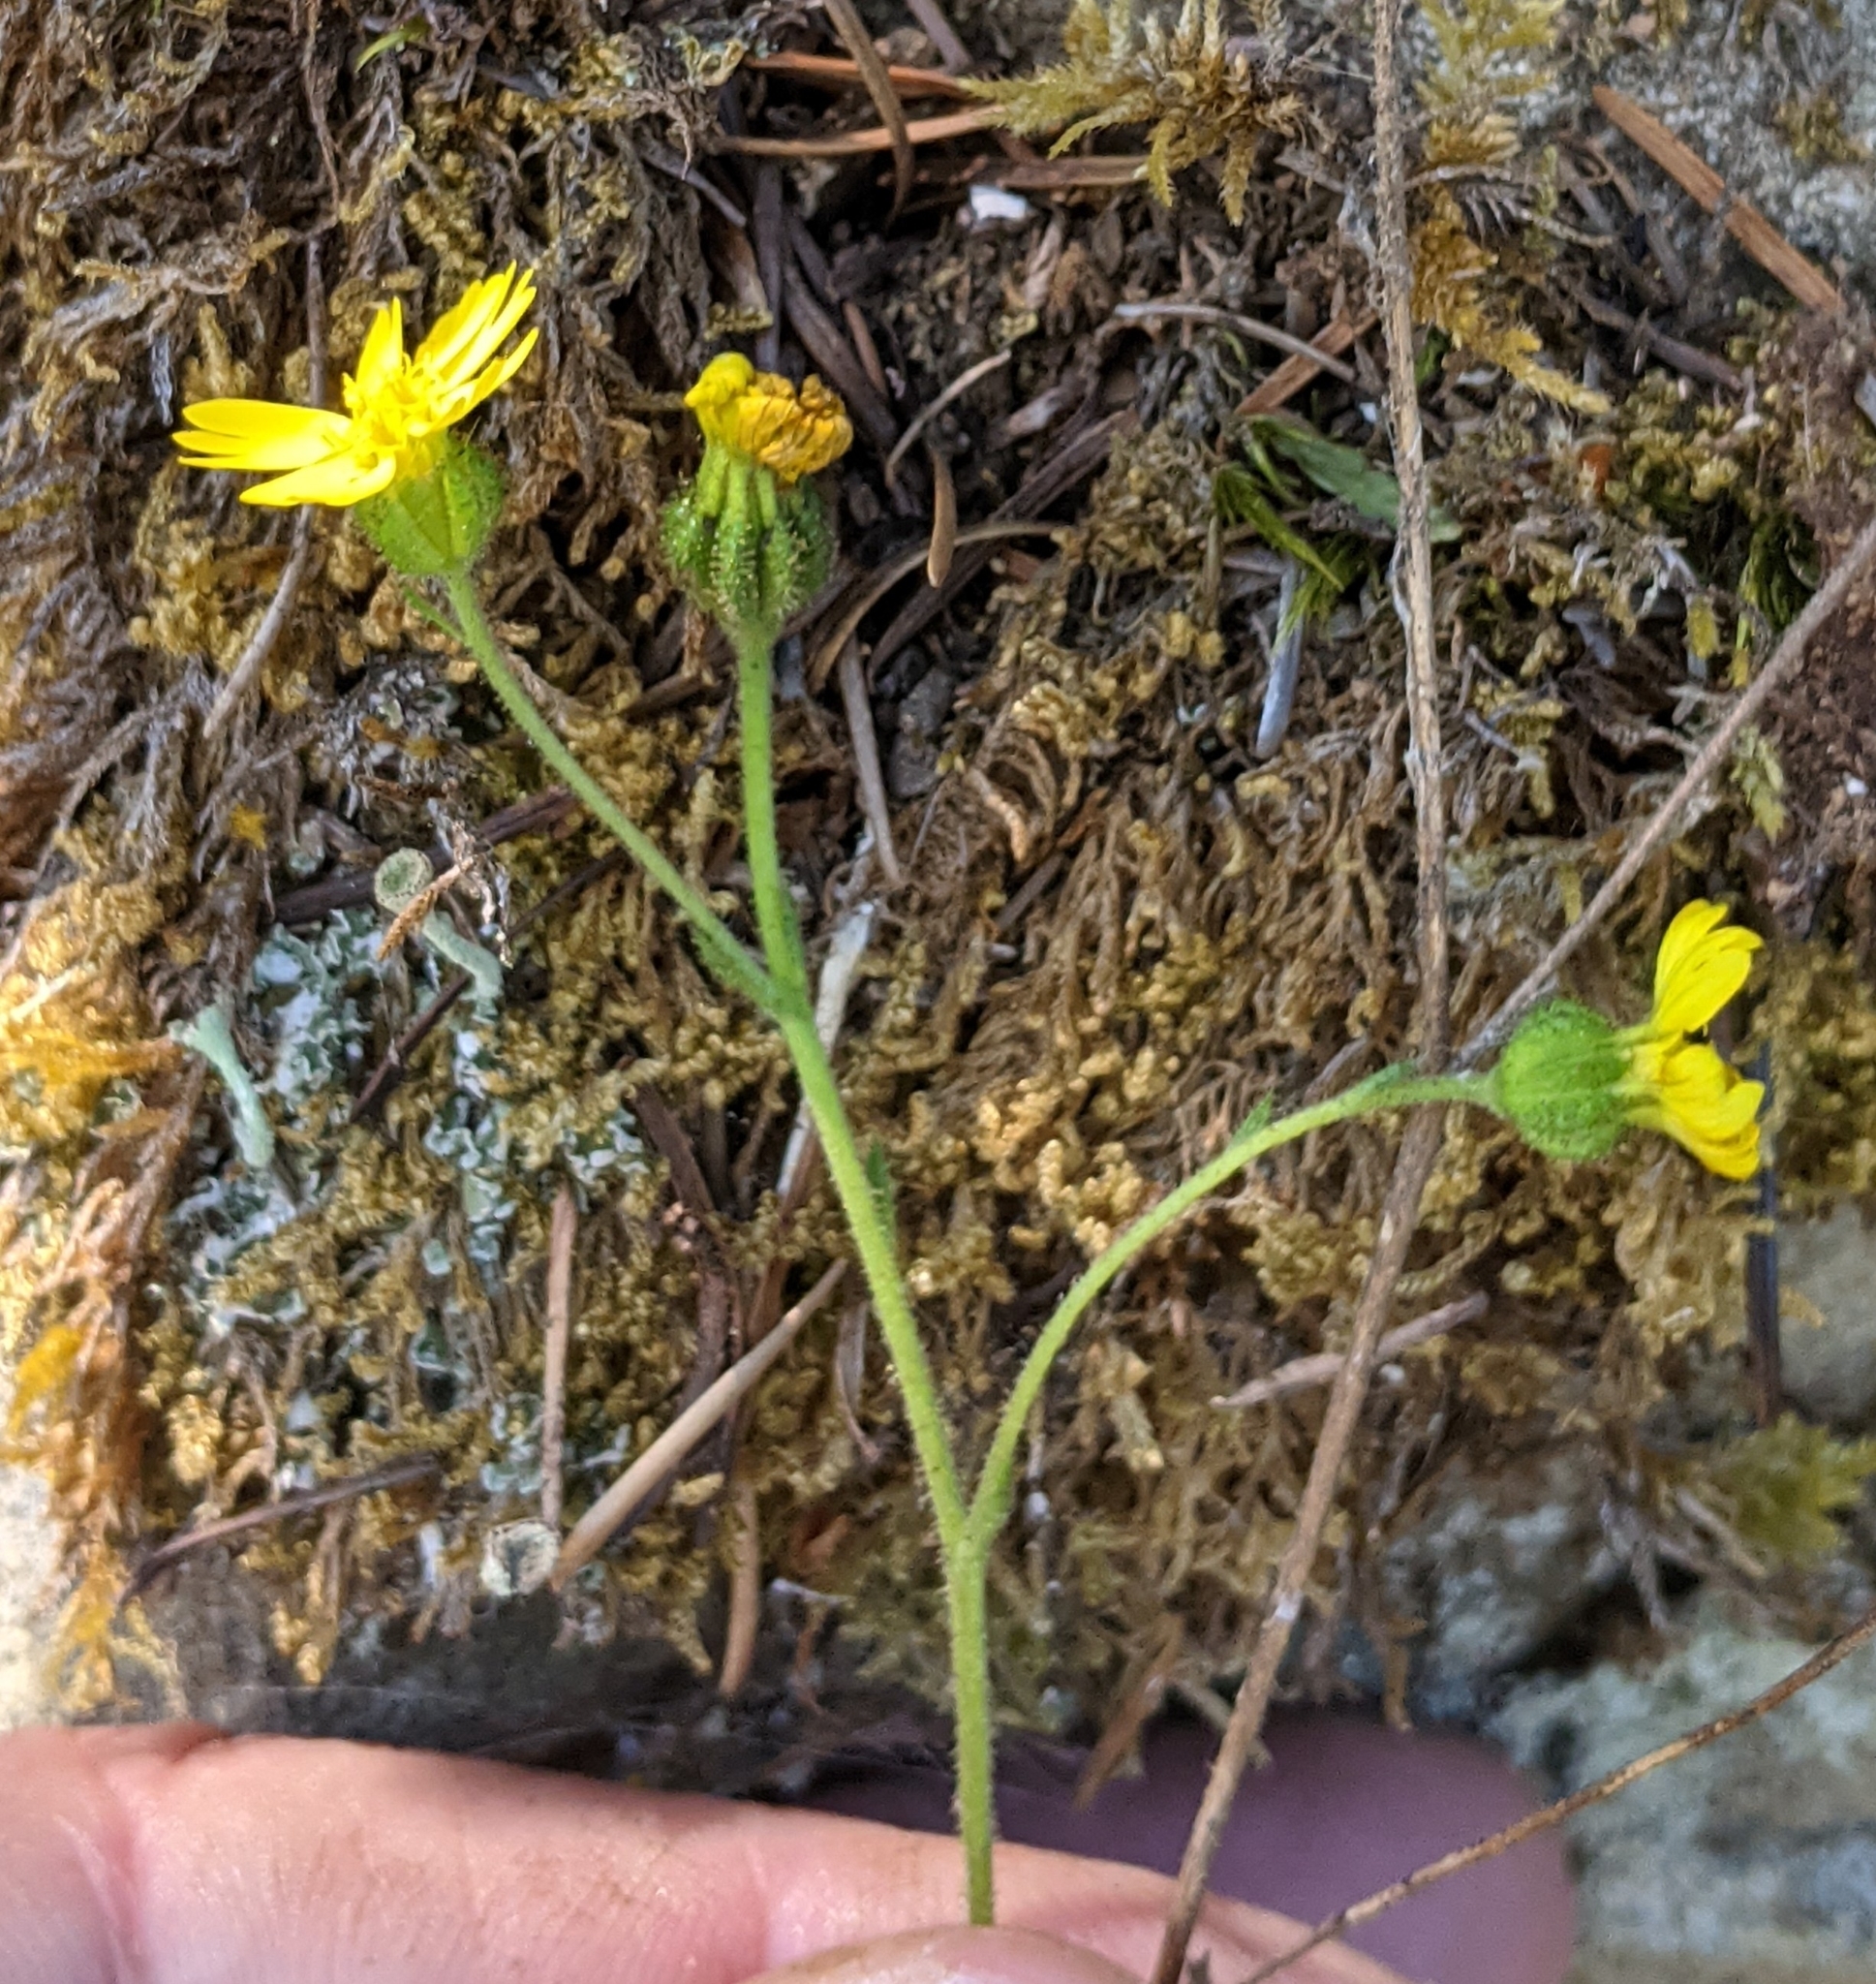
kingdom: Plantae
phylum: Tracheophyta
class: Magnoliopsida
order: Asterales
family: Asteraceae
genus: Anisocarpus
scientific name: Anisocarpus madioides
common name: Woodland madia
